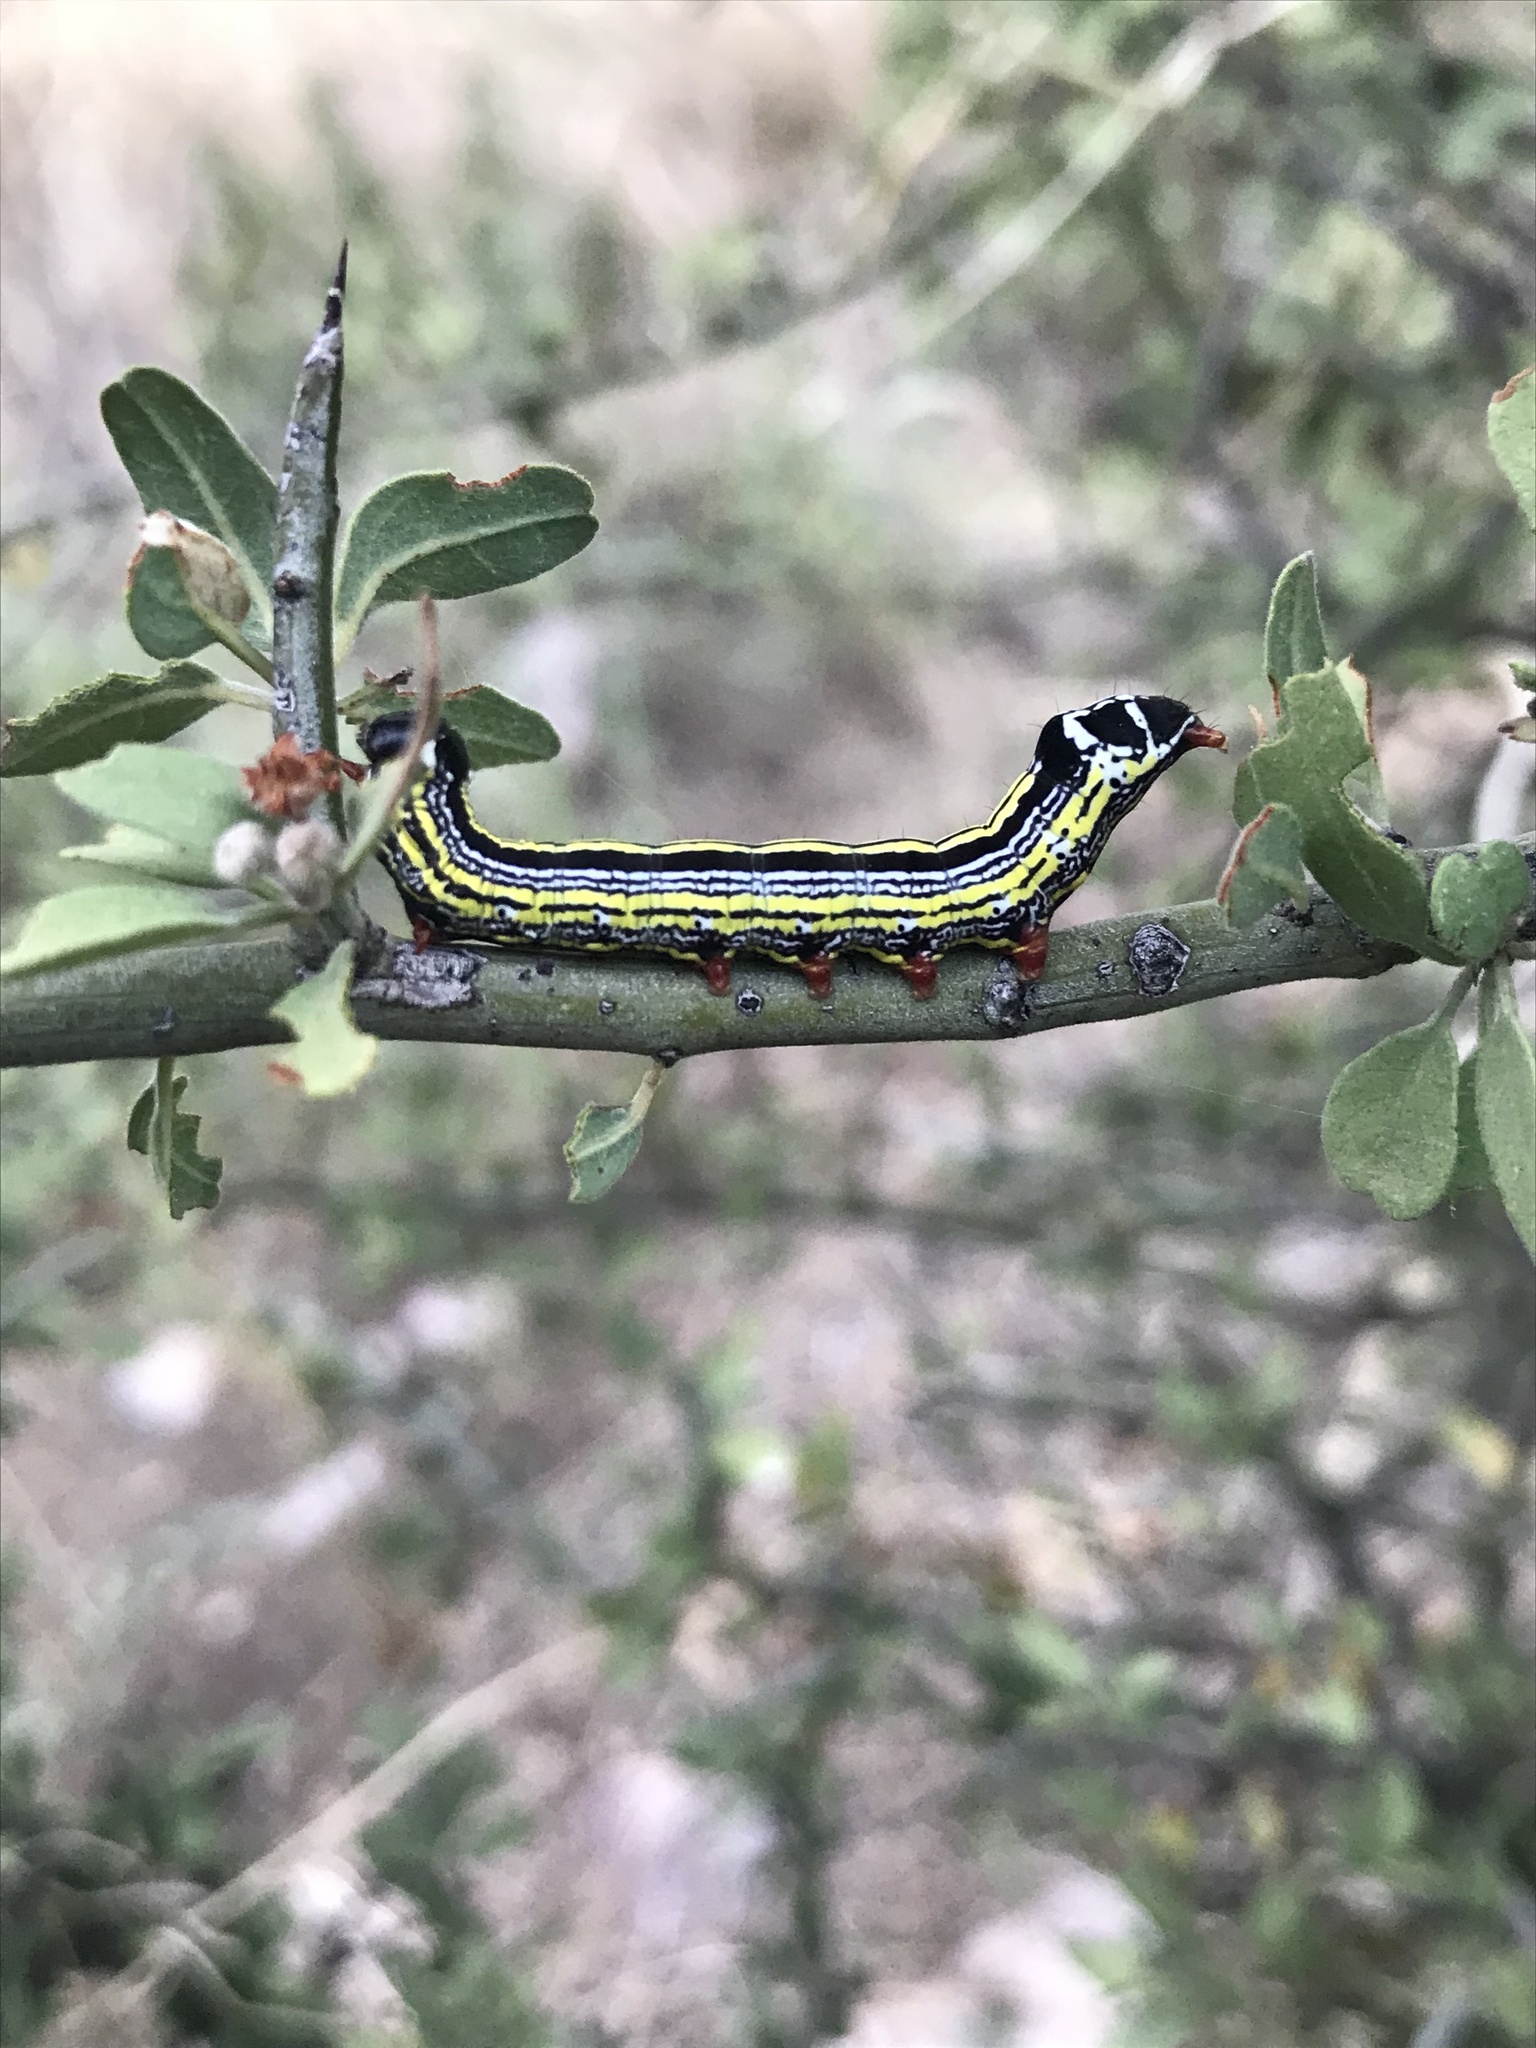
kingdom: Animalia
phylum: Arthropoda
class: Insecta
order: Lepidoptera
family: Notodontidae
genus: Cargida
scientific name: Cargida pyrrha
